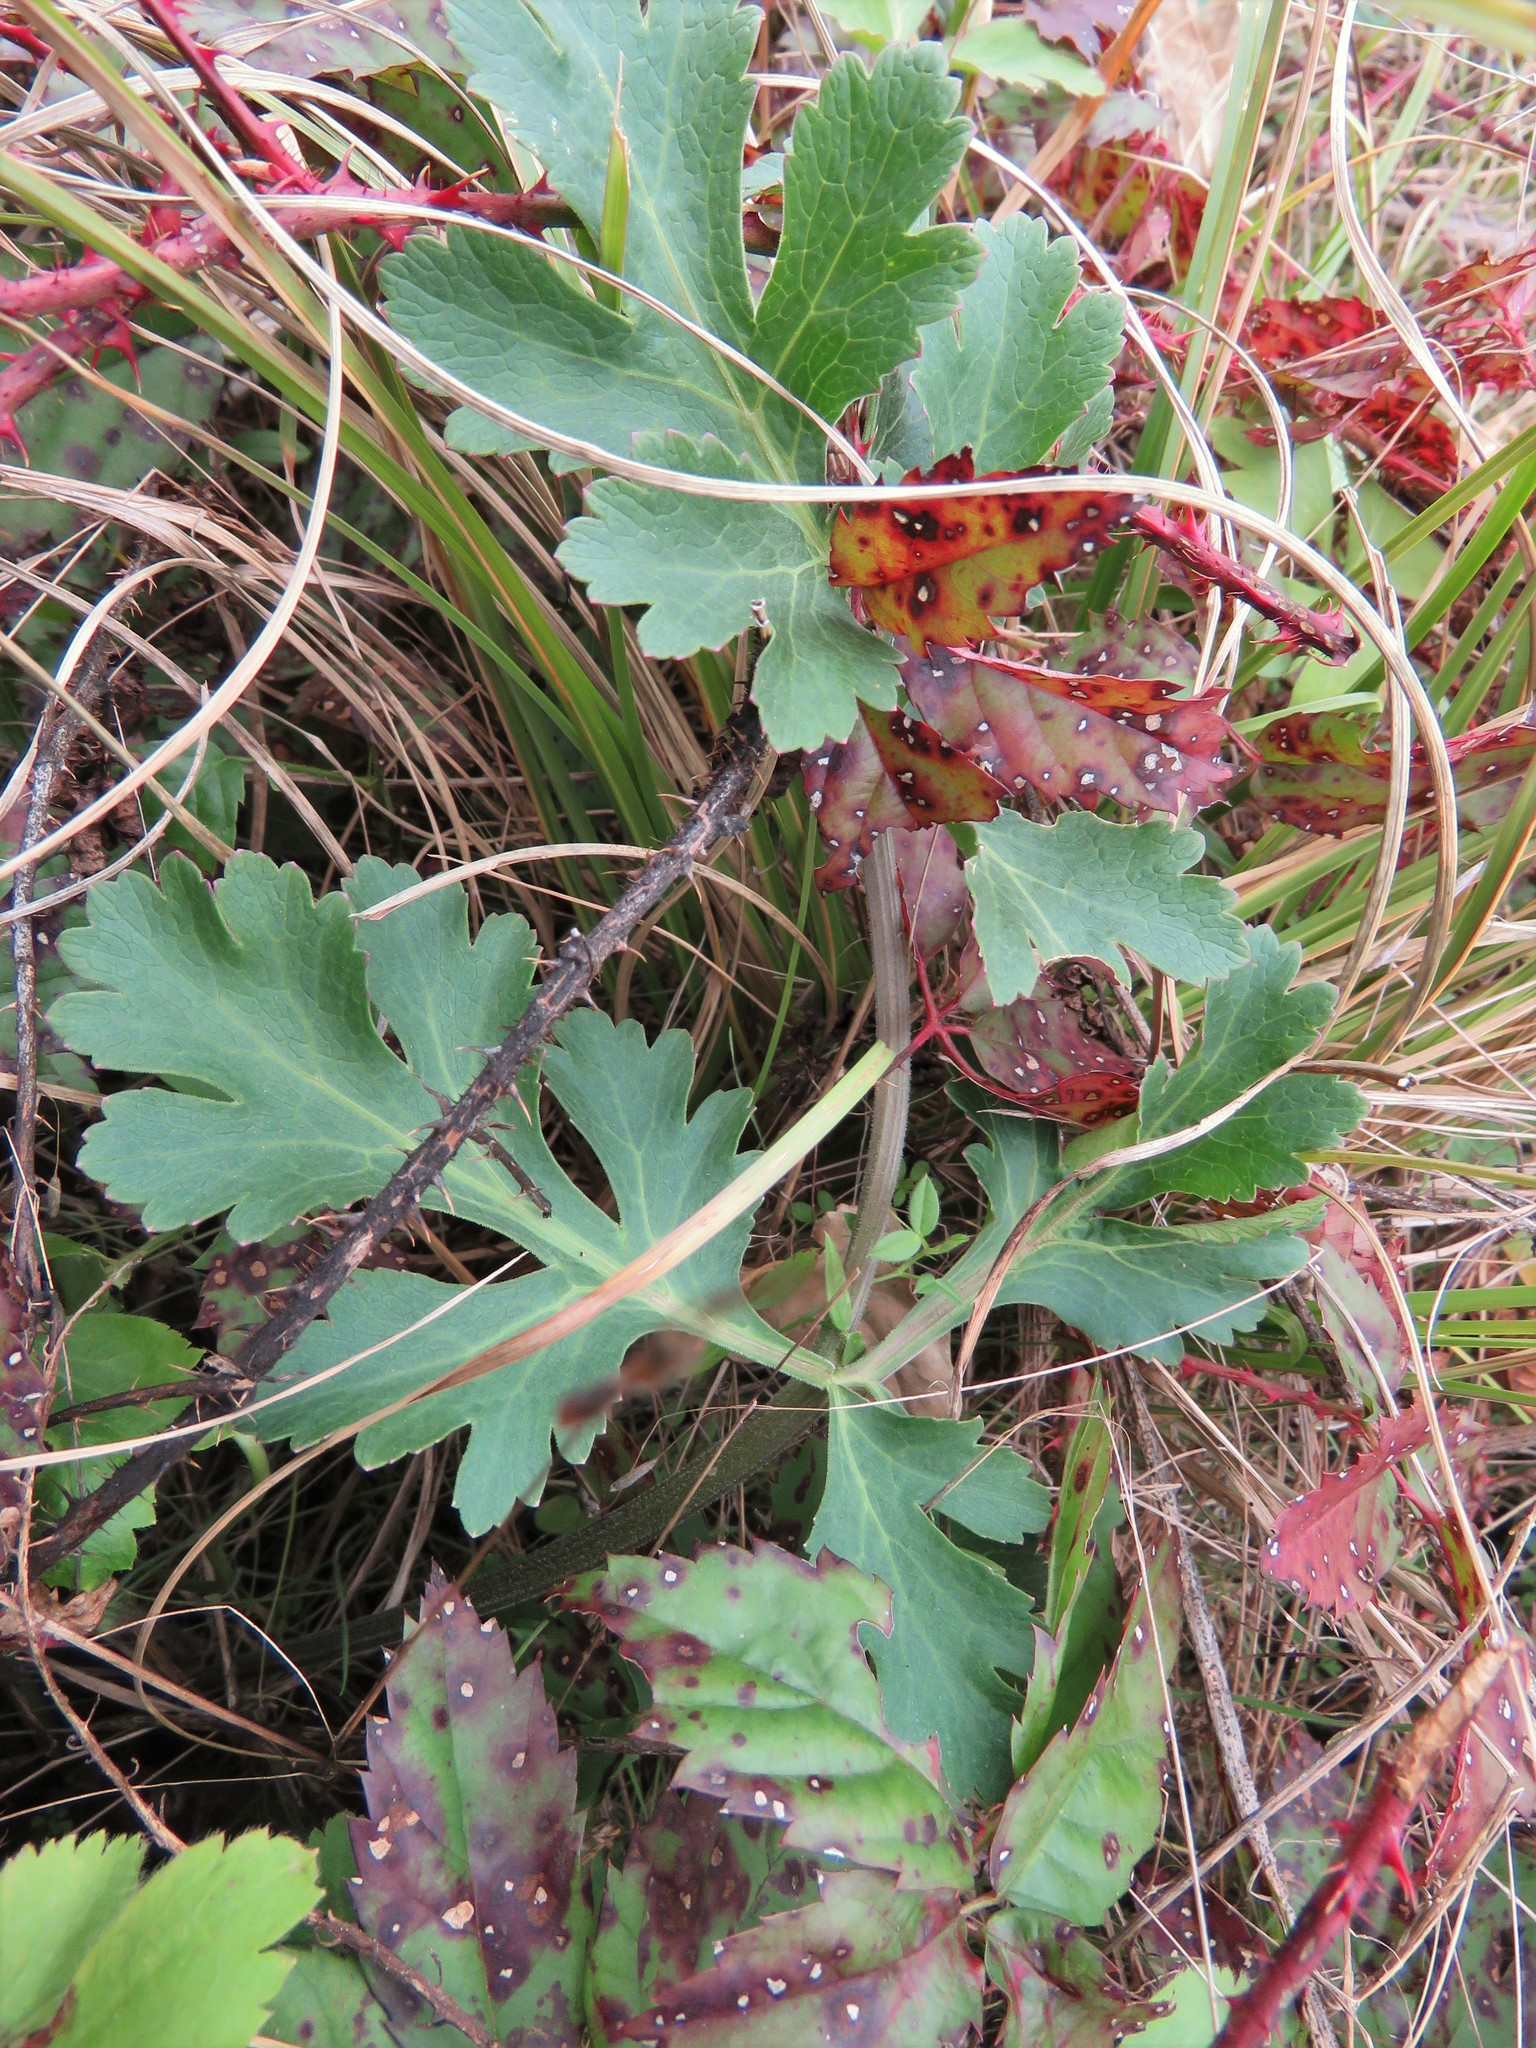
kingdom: Plantae
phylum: Tracheophyta
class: Magnoliopsida
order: Apiales
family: Apiaceae
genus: Polytaenia
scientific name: Polytaenia texana
